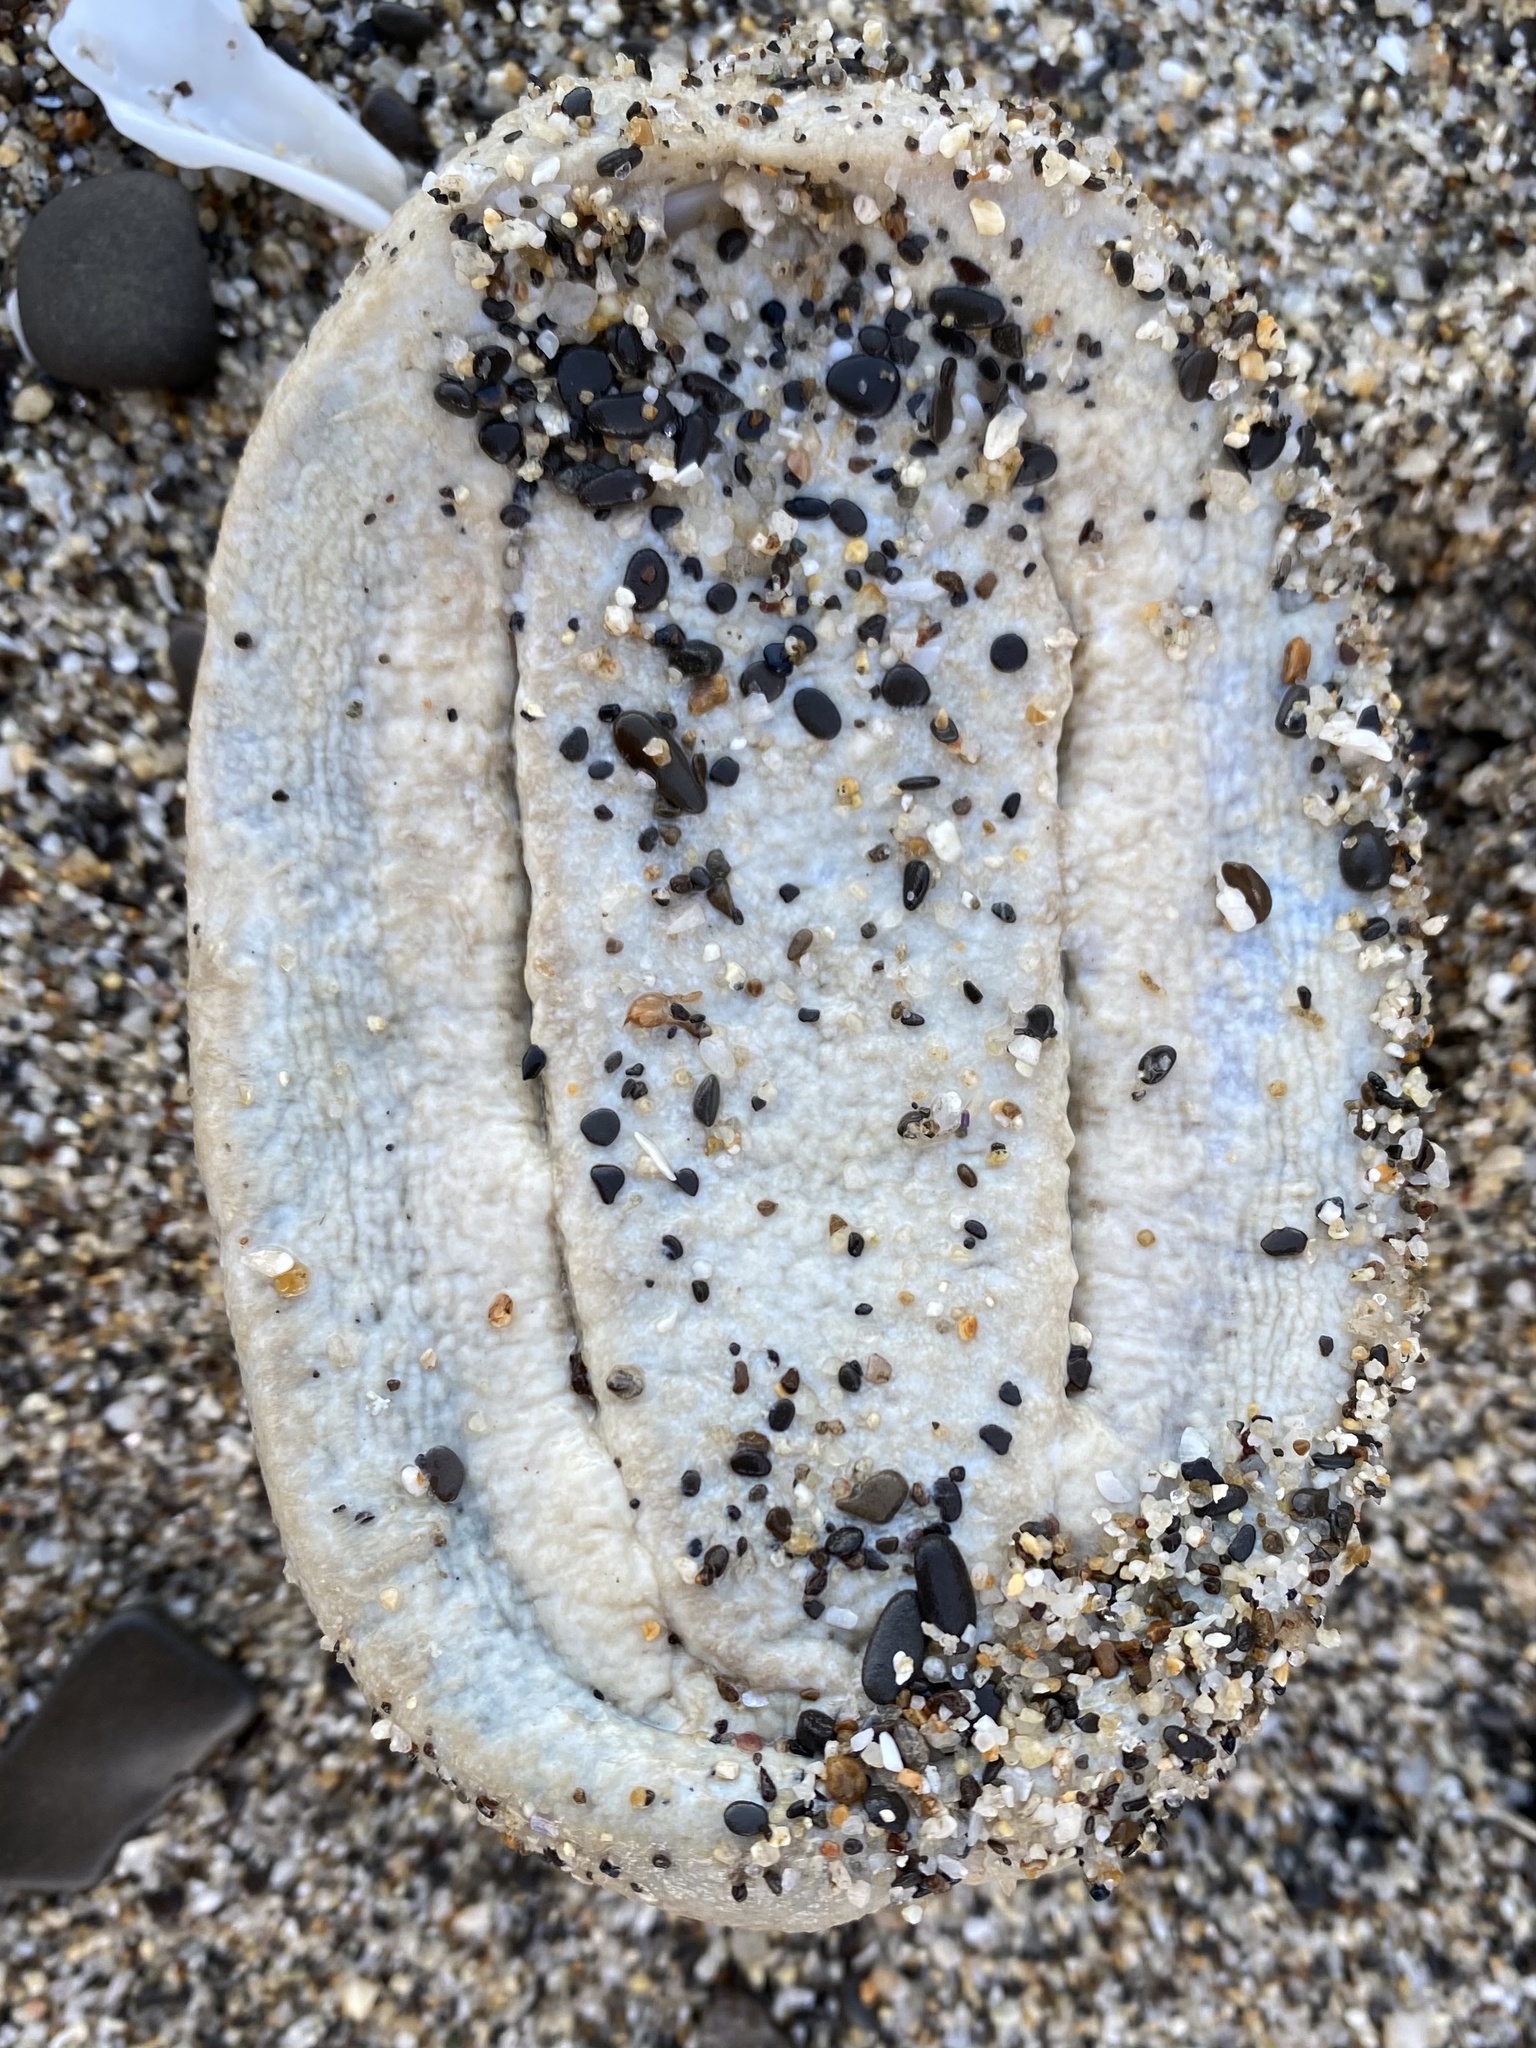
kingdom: Animalia
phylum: Mollusca
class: Polyplacophora
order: Chitonida
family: Acanthochitonidae
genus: Cryptochiton
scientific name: Cryptochiton stelleri
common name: Giant pacific chiton
